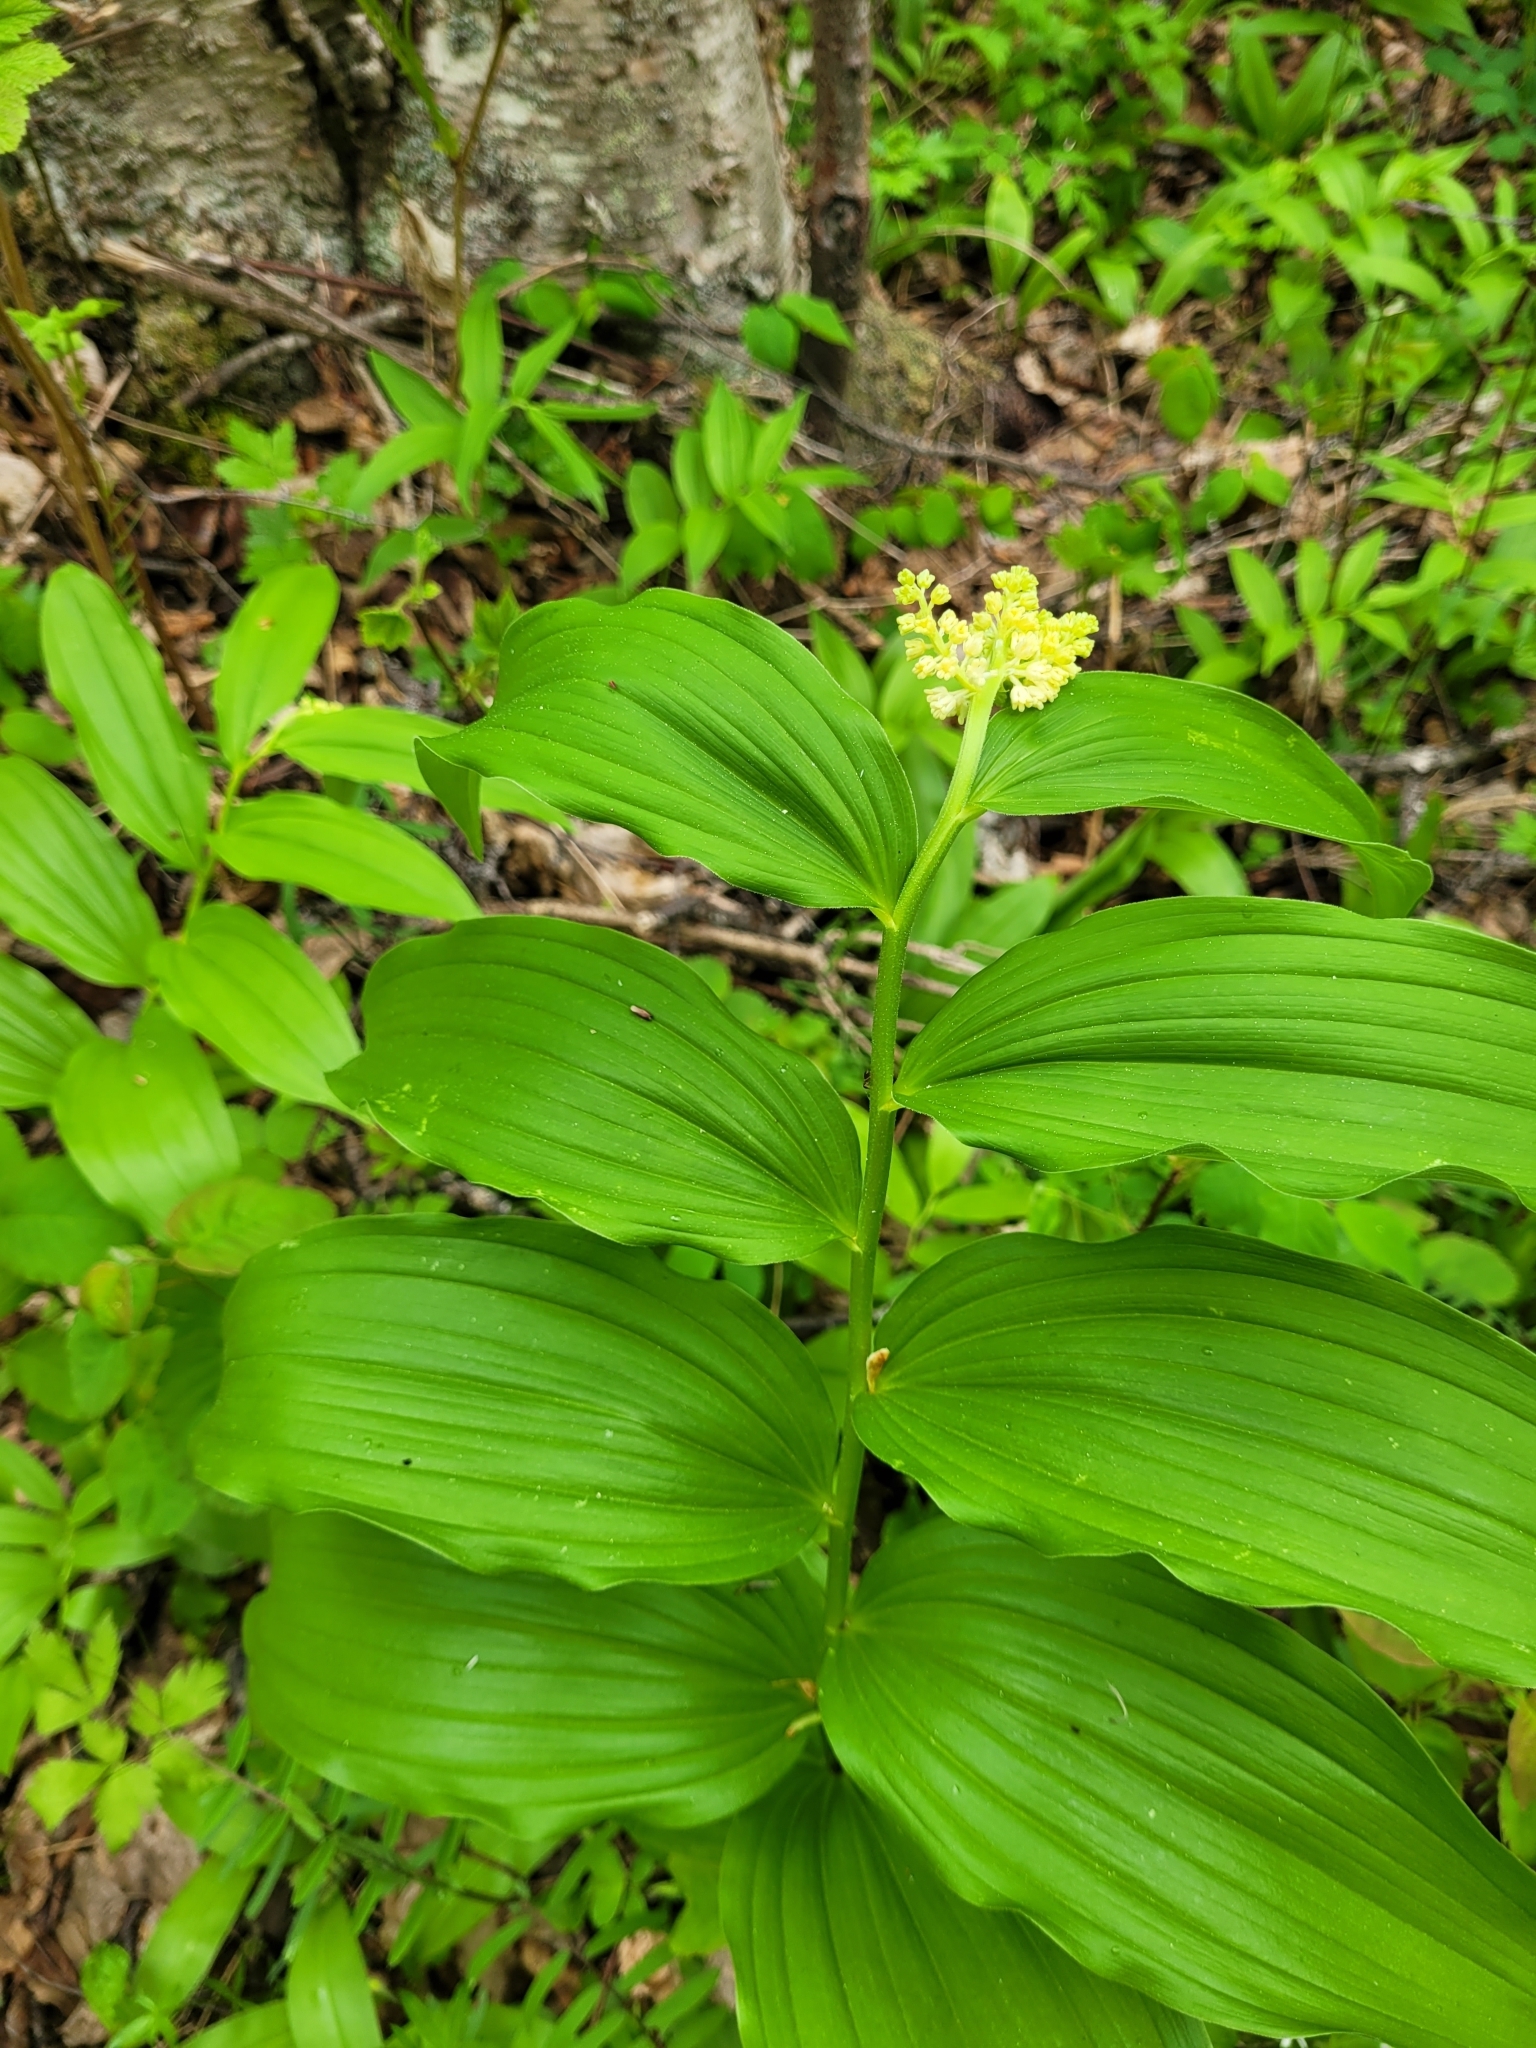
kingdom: Plantae
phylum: Tracheophyta
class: Liliopsida
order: Asparagales
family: Asparagaceae
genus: Maianthemum
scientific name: Maianthemum racemosum
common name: False spikenard
